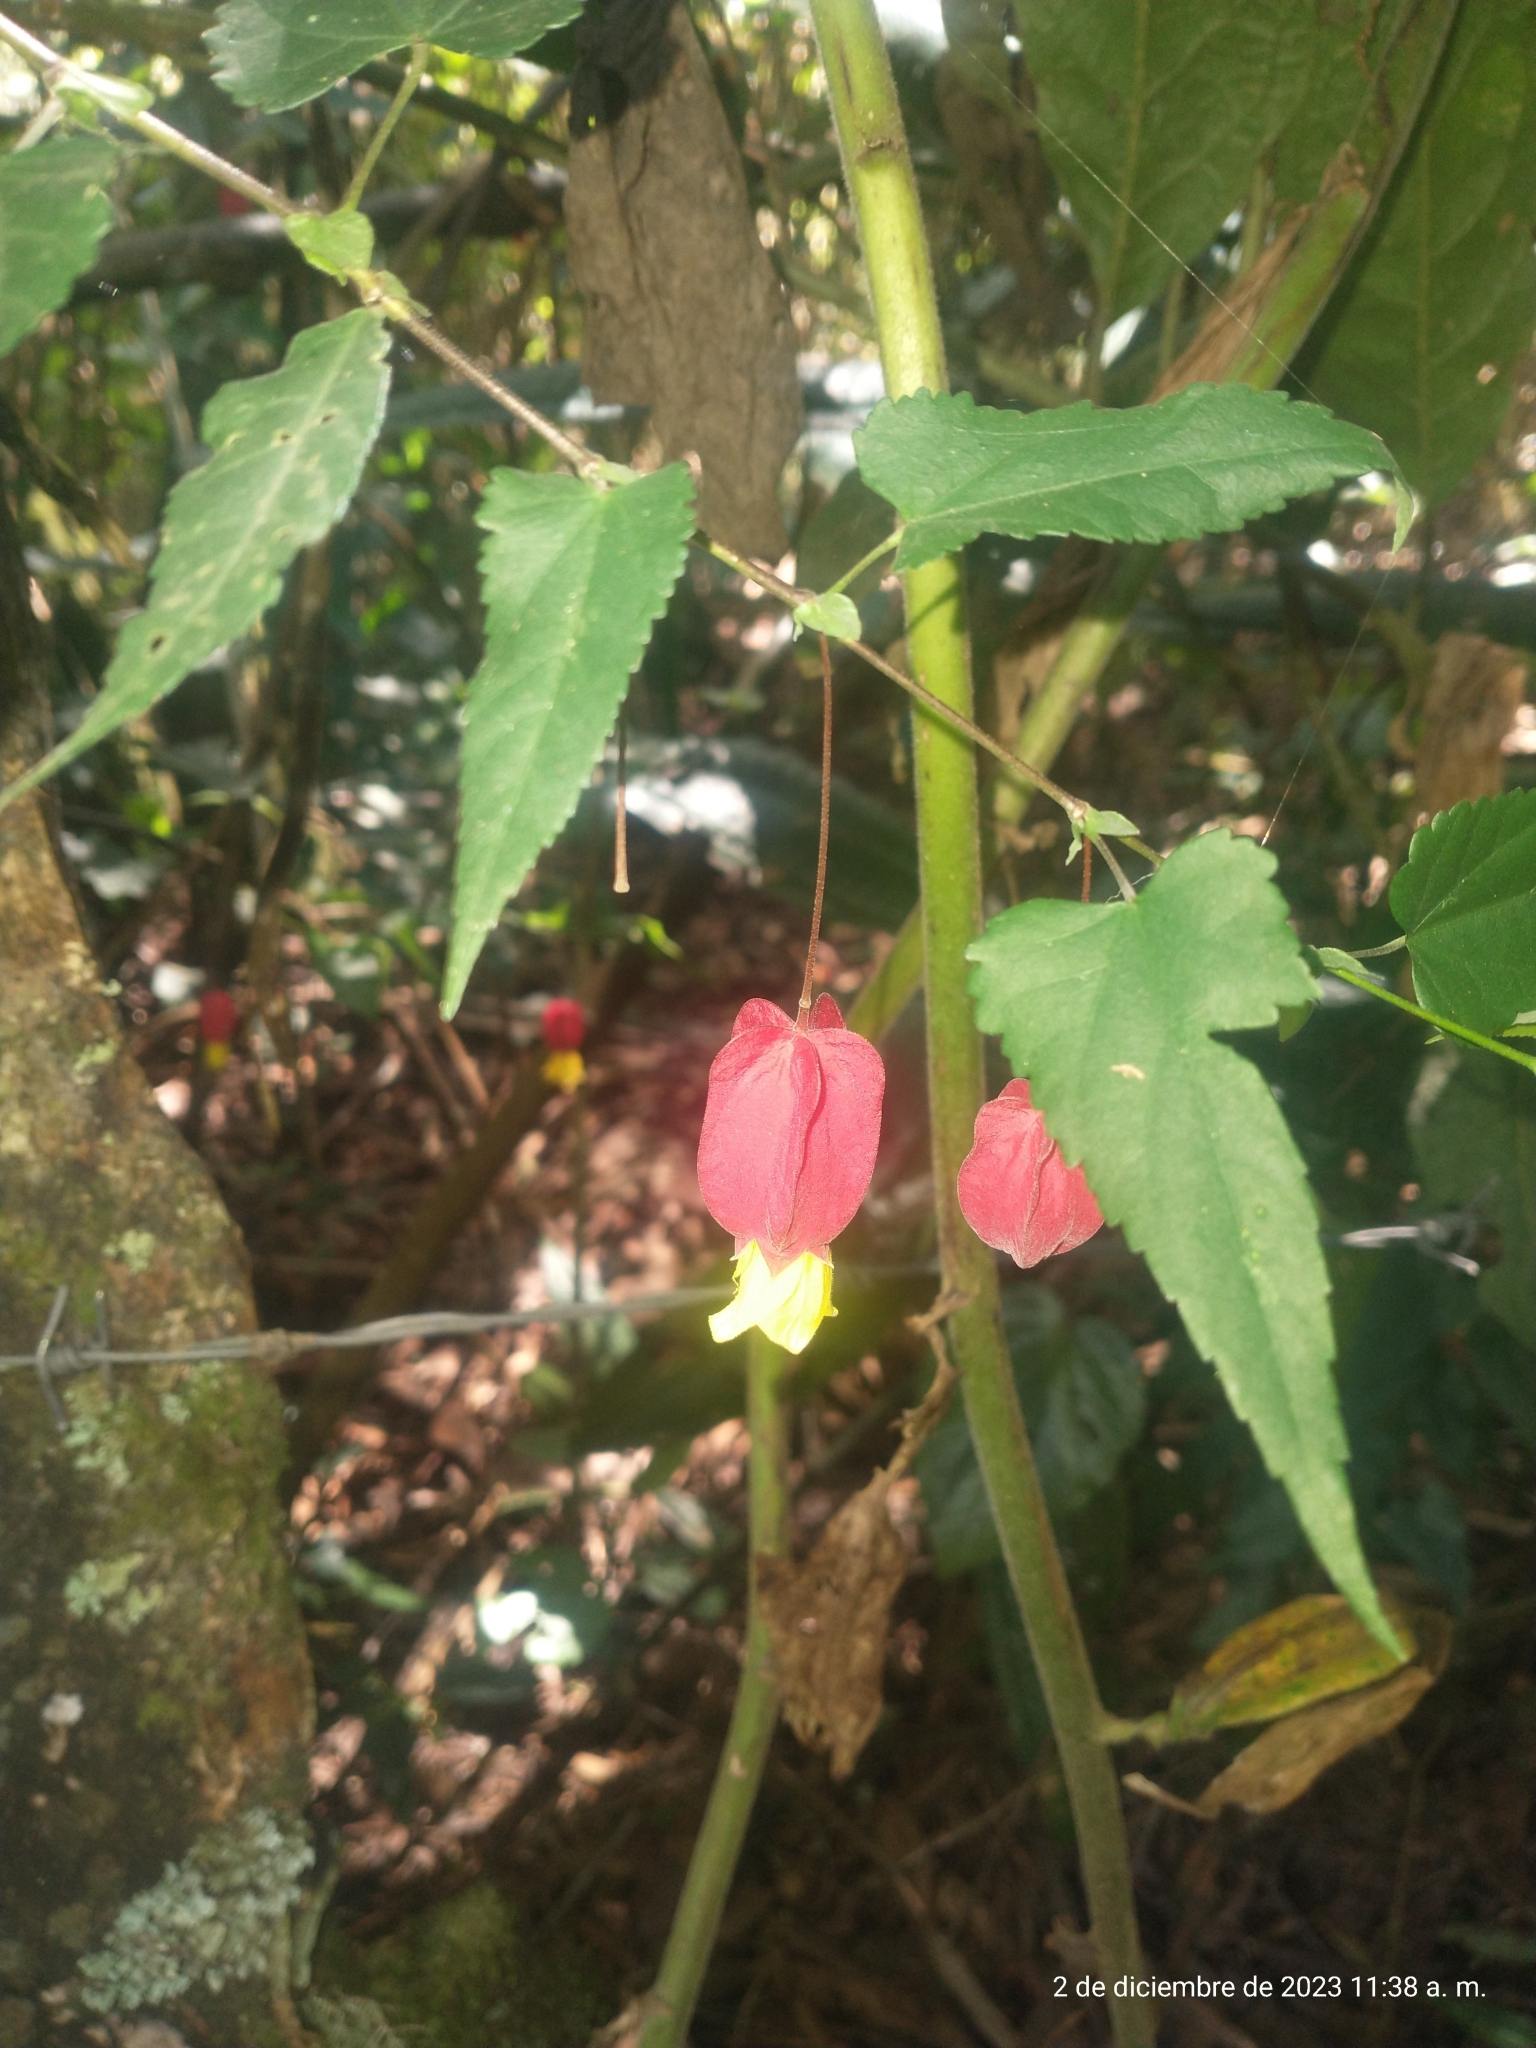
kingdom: Plantae
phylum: Tracheophyta
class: Magnoliopsida
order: Malvales
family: Malvaceae
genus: Callianthe
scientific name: Callianthe megapotamica
